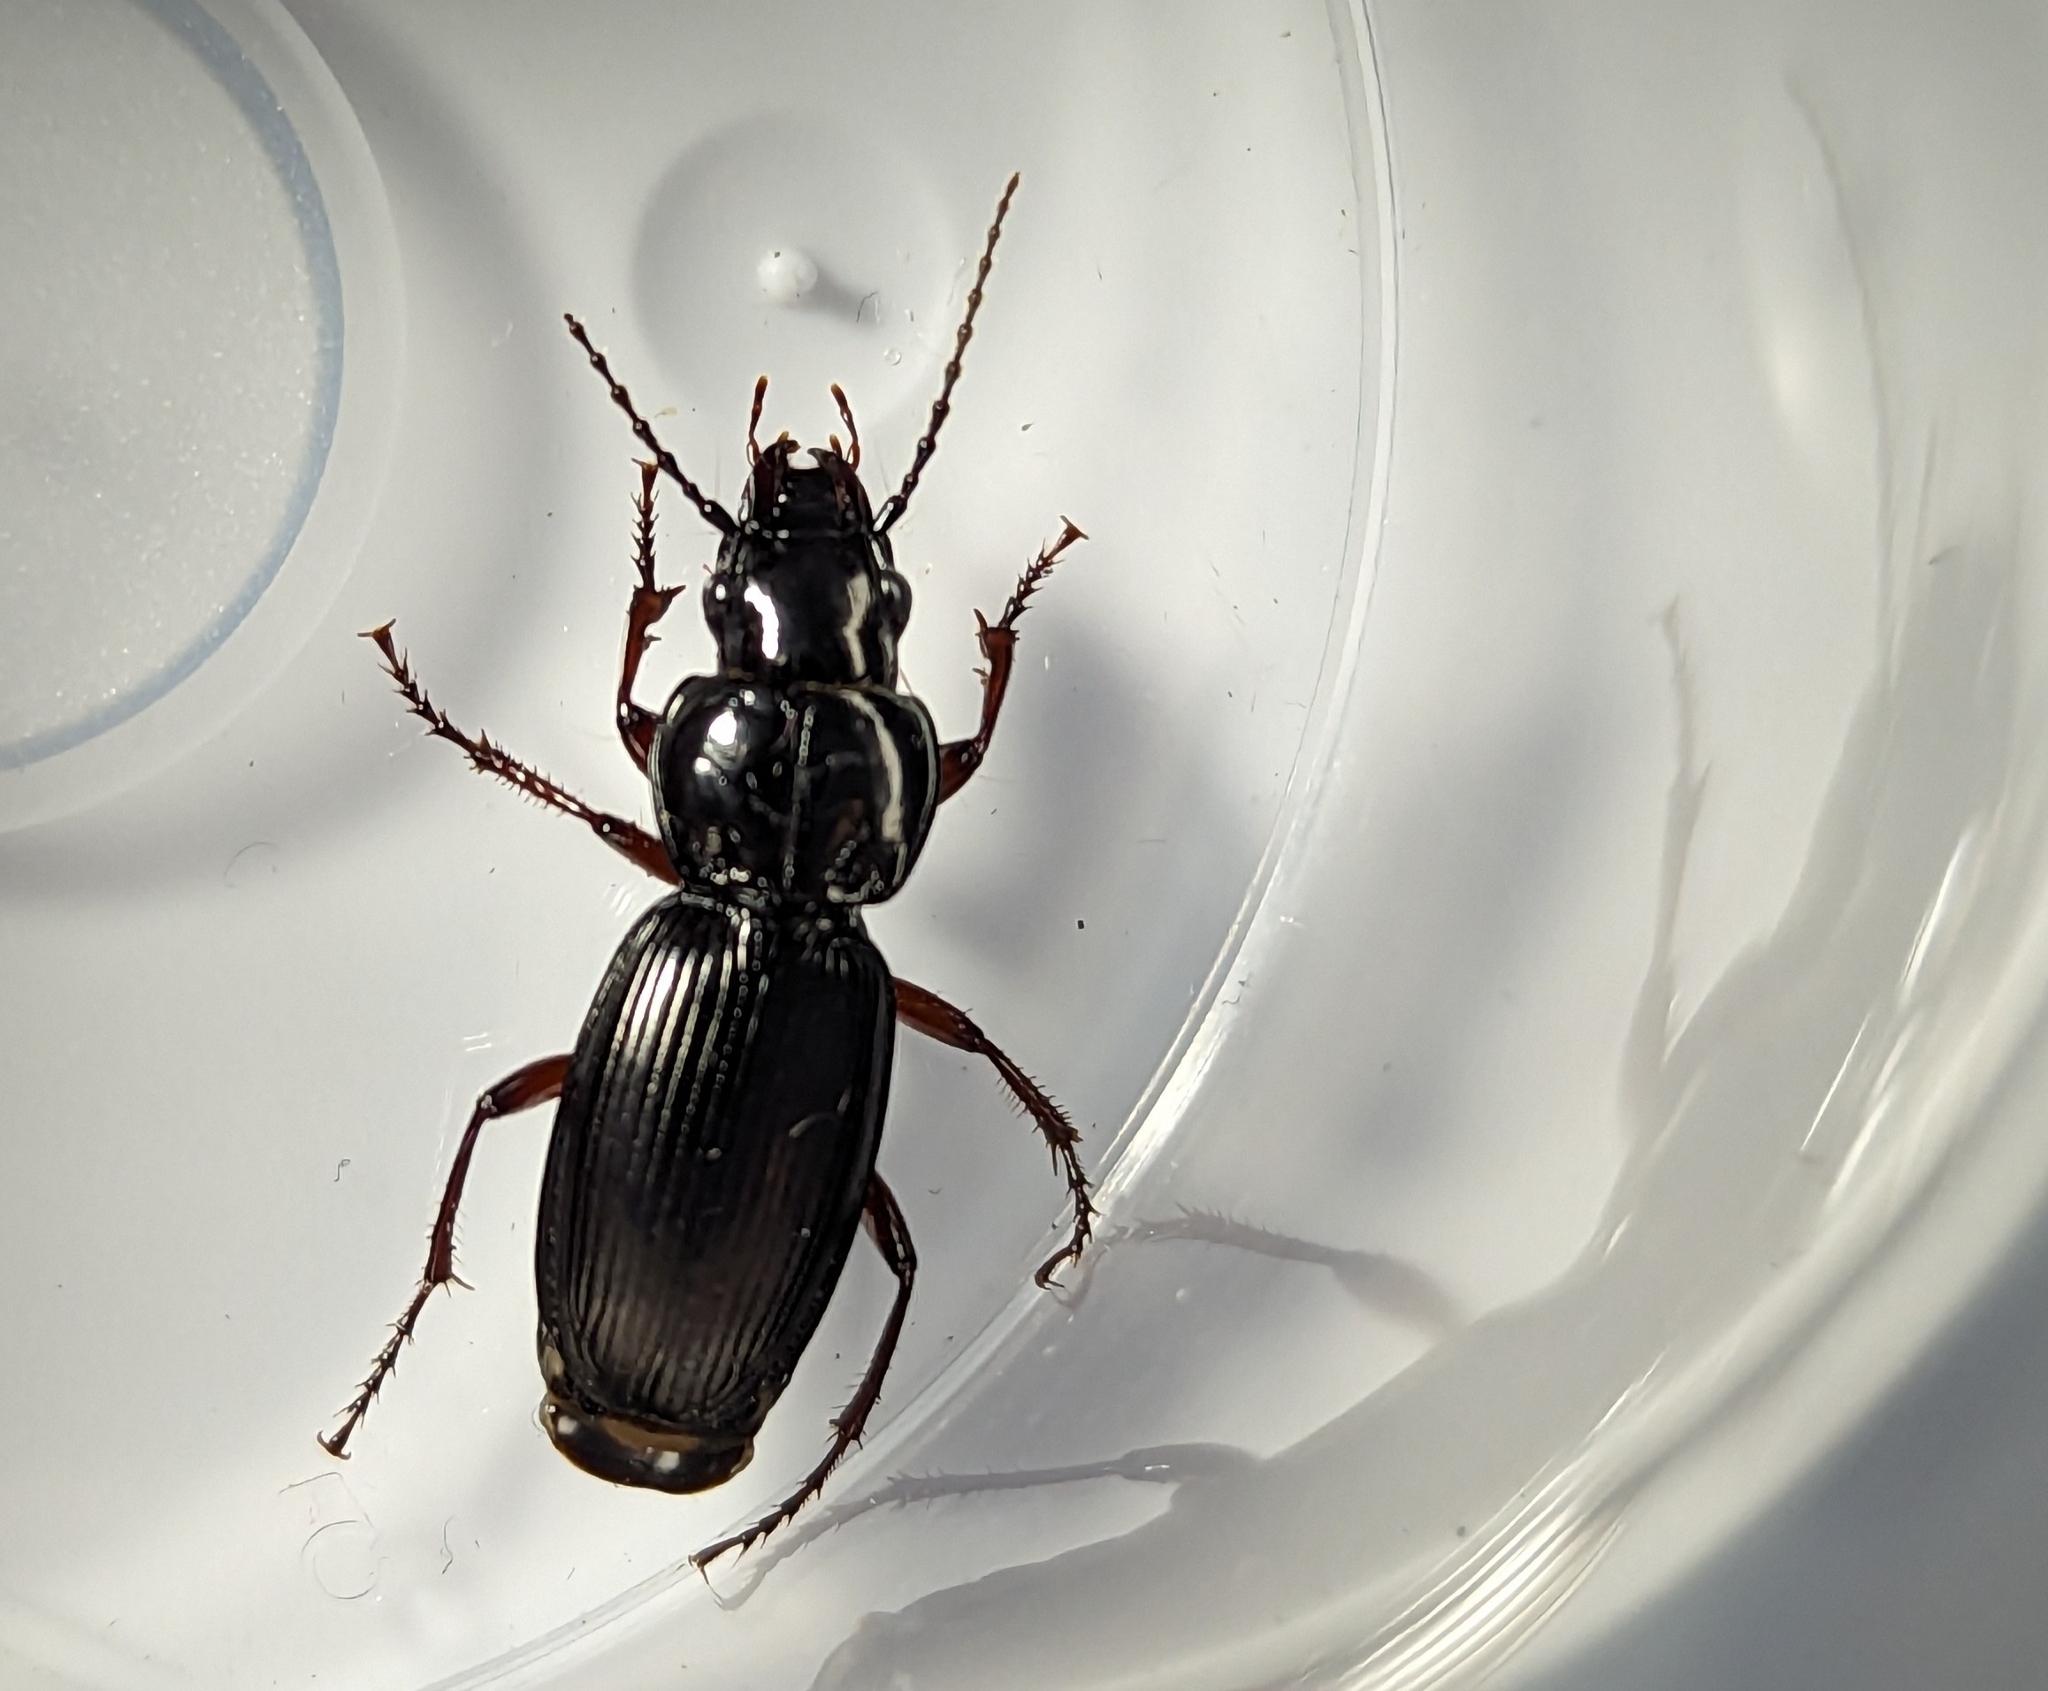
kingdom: Animalia
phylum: Arthropoda
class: Insecta
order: Coleoptera
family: Carabidae
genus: Pterostichus
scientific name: Pterostichus madidus
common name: Black clock
